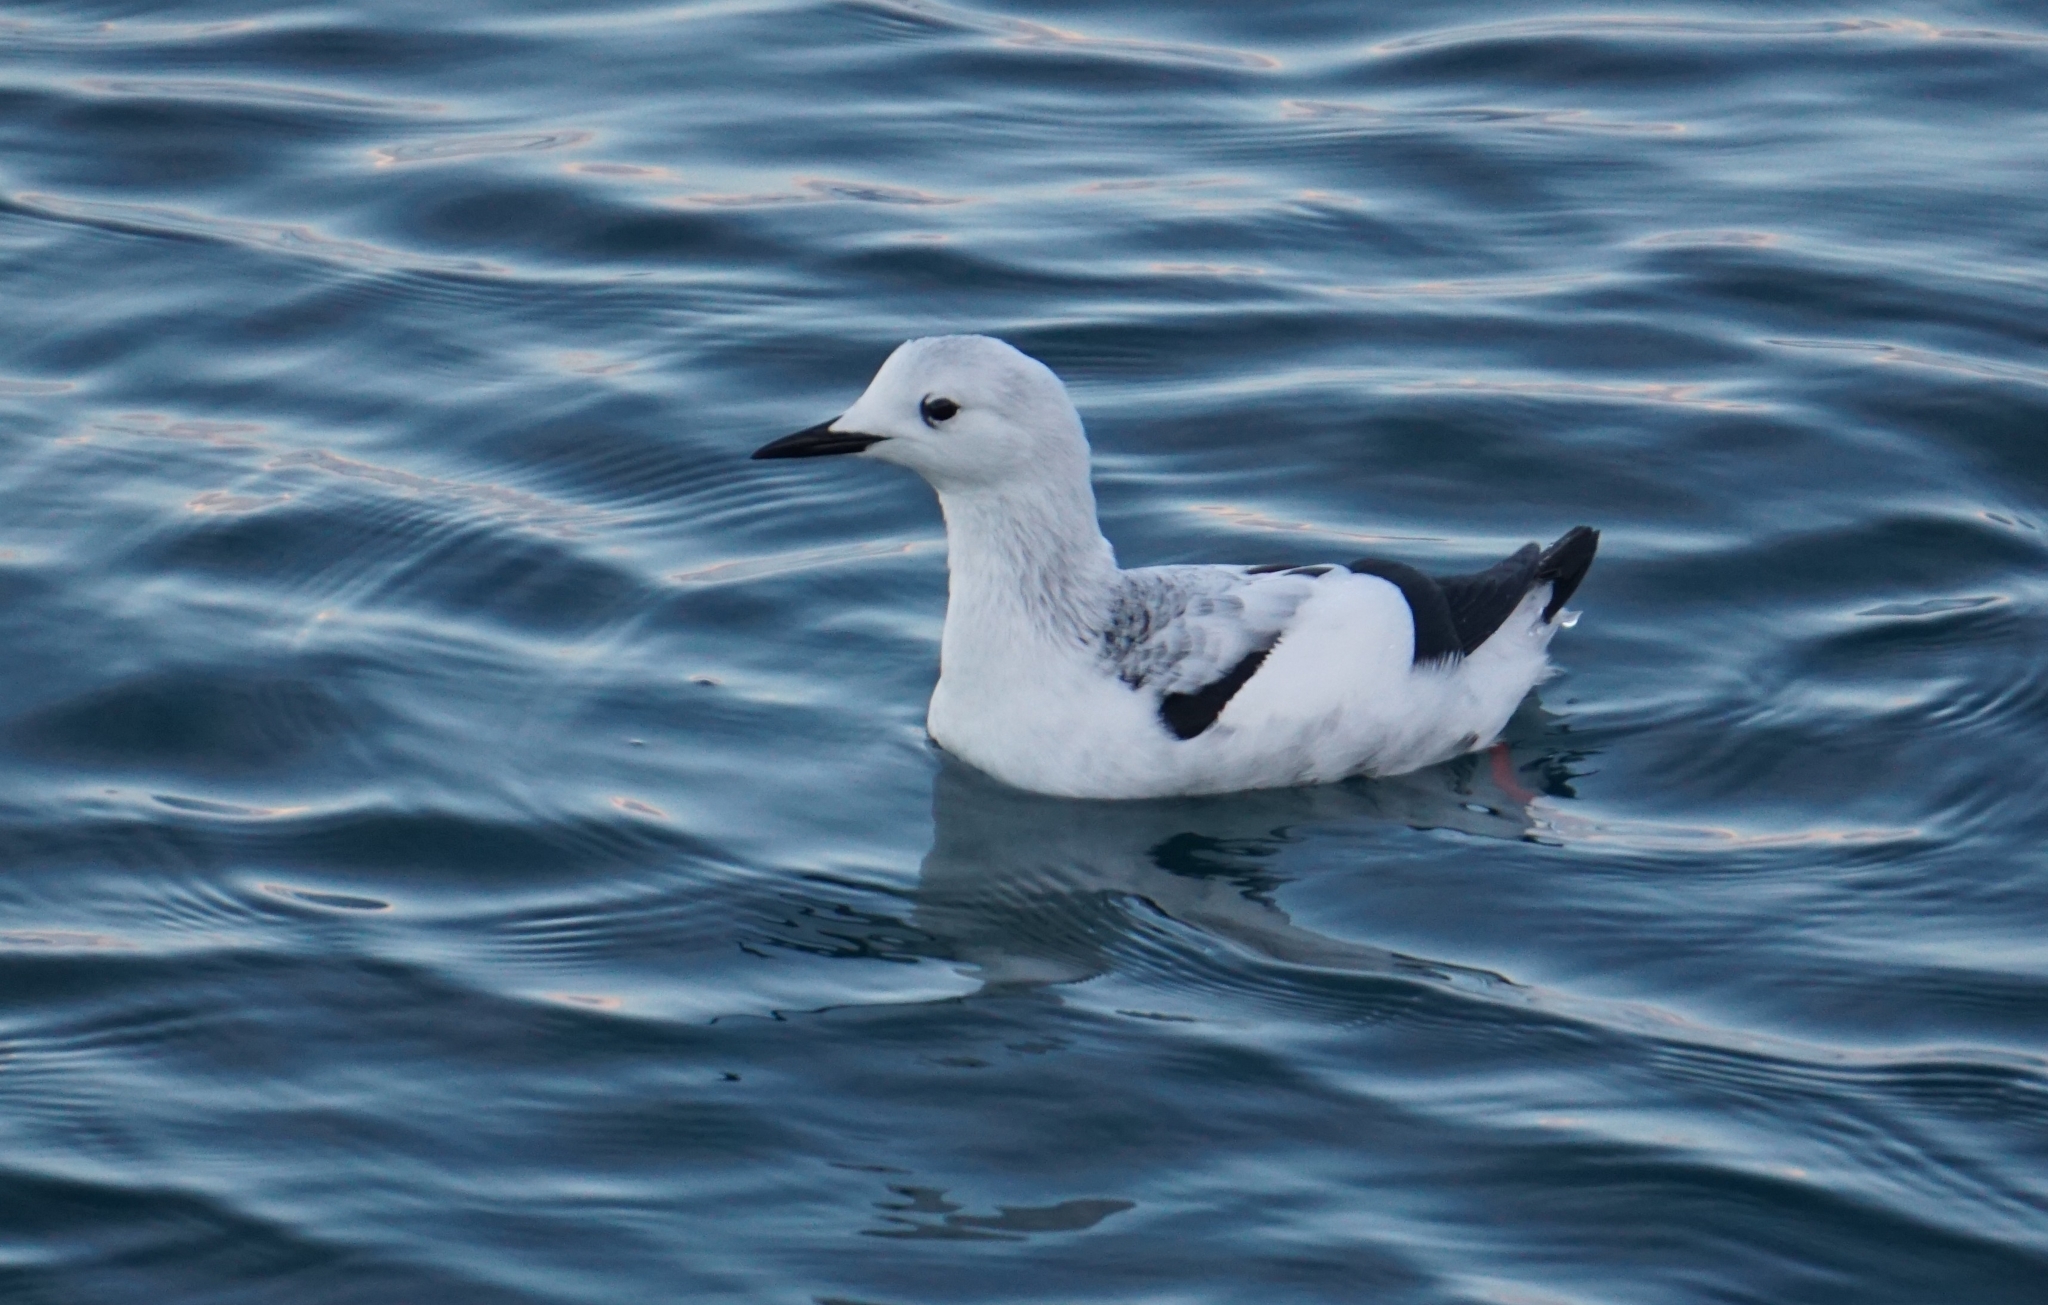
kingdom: Animalia
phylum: Chordata
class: Aves
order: Charadriiformes
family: Alcidae
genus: Cepphus
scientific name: Cepphus grylle
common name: Black guillemot
